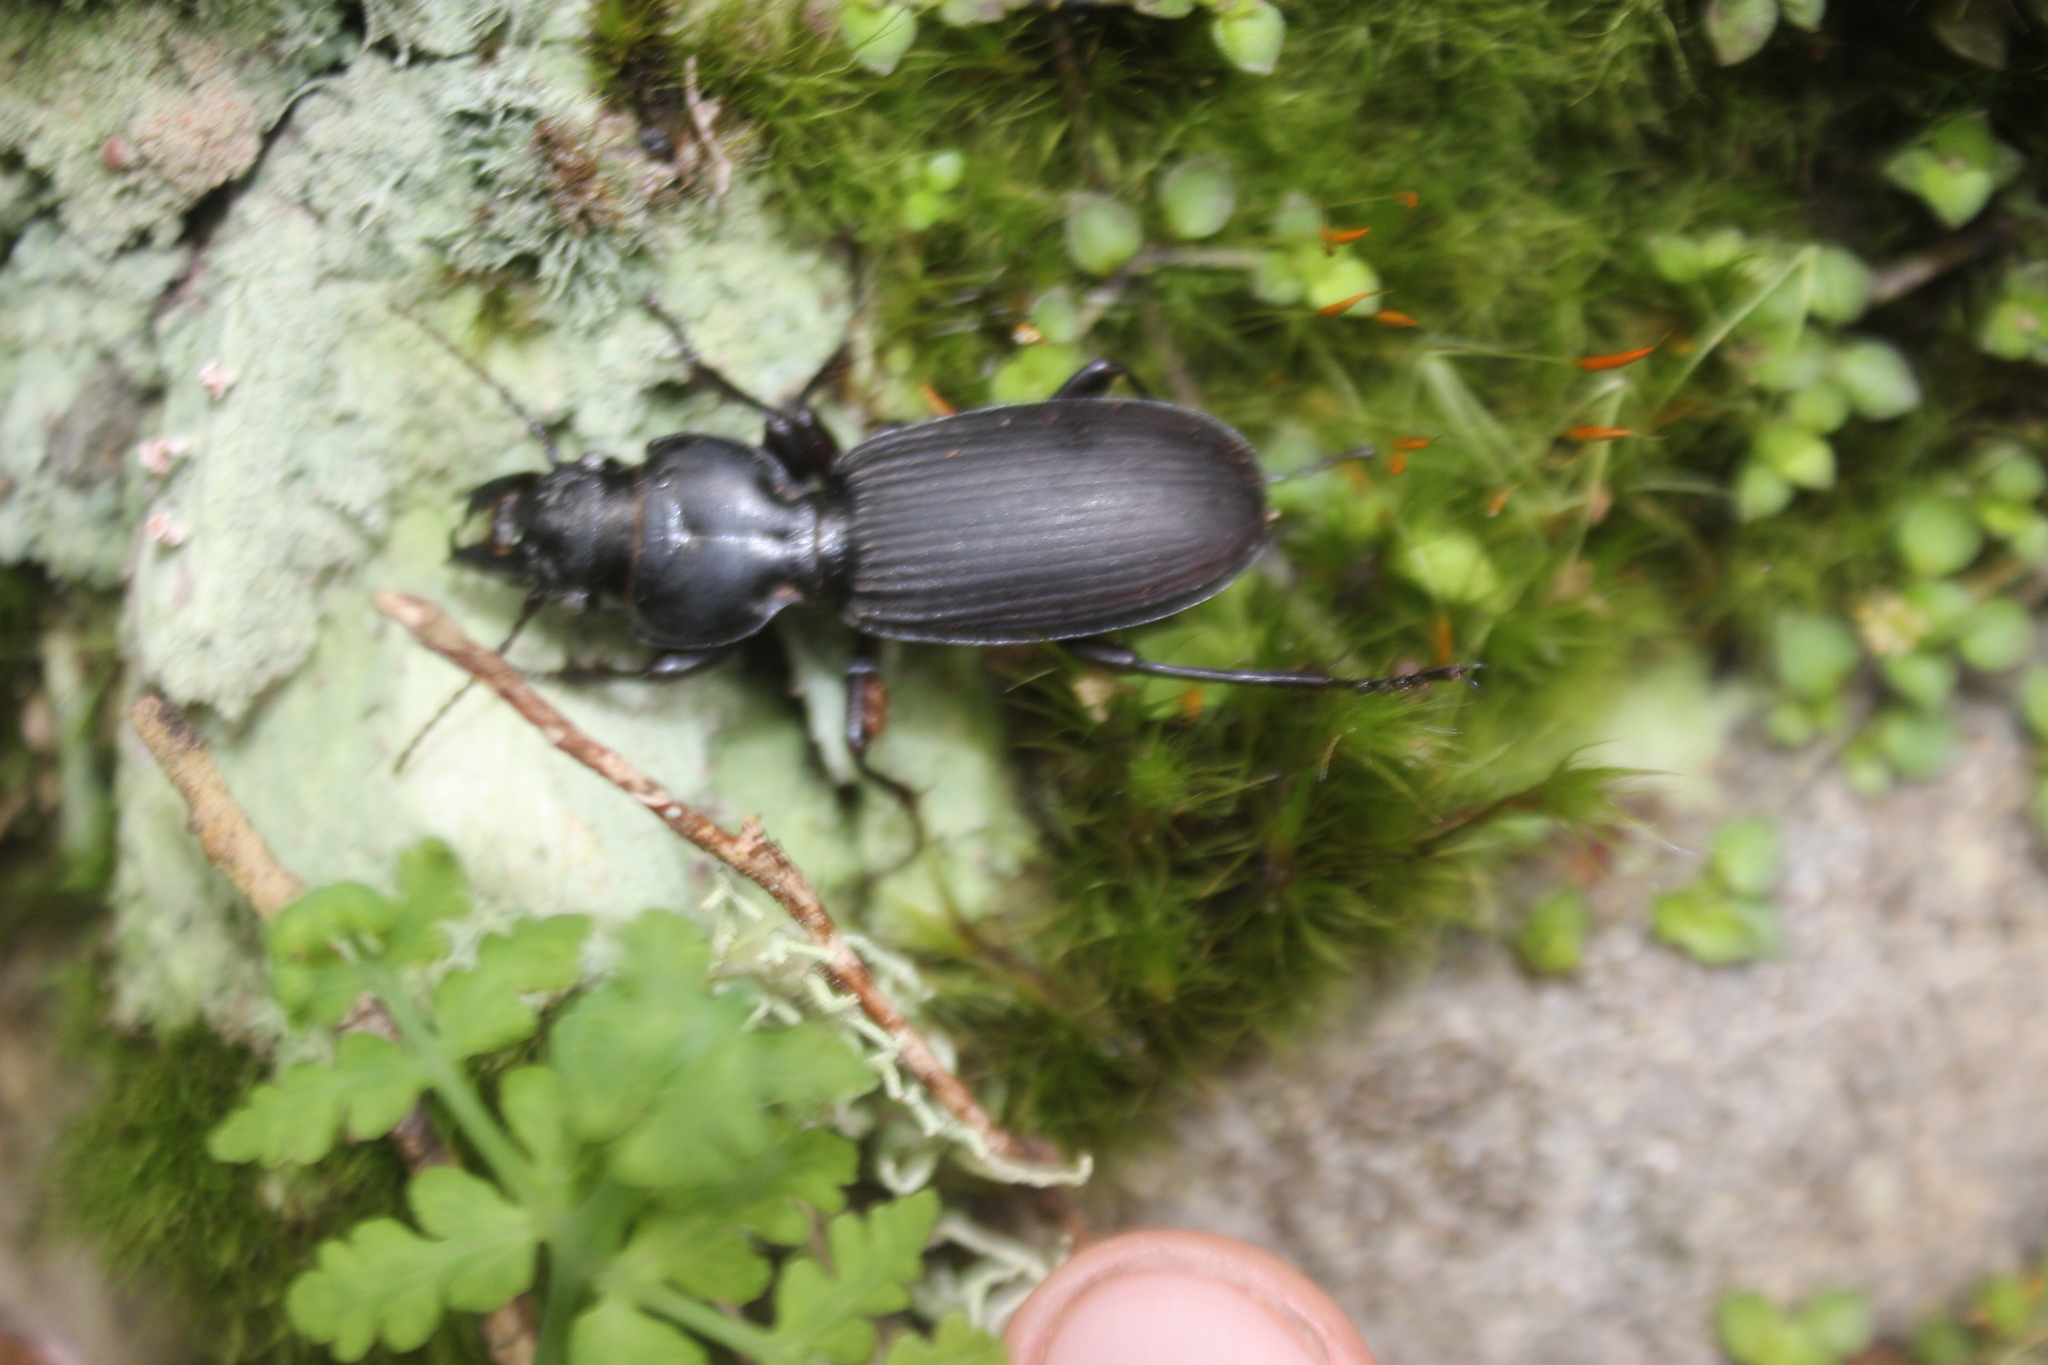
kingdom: Animalia
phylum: Arthropoda
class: Insecta
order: Coleoptera
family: Carabidae
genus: Mecodema
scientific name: Mecodema validum
